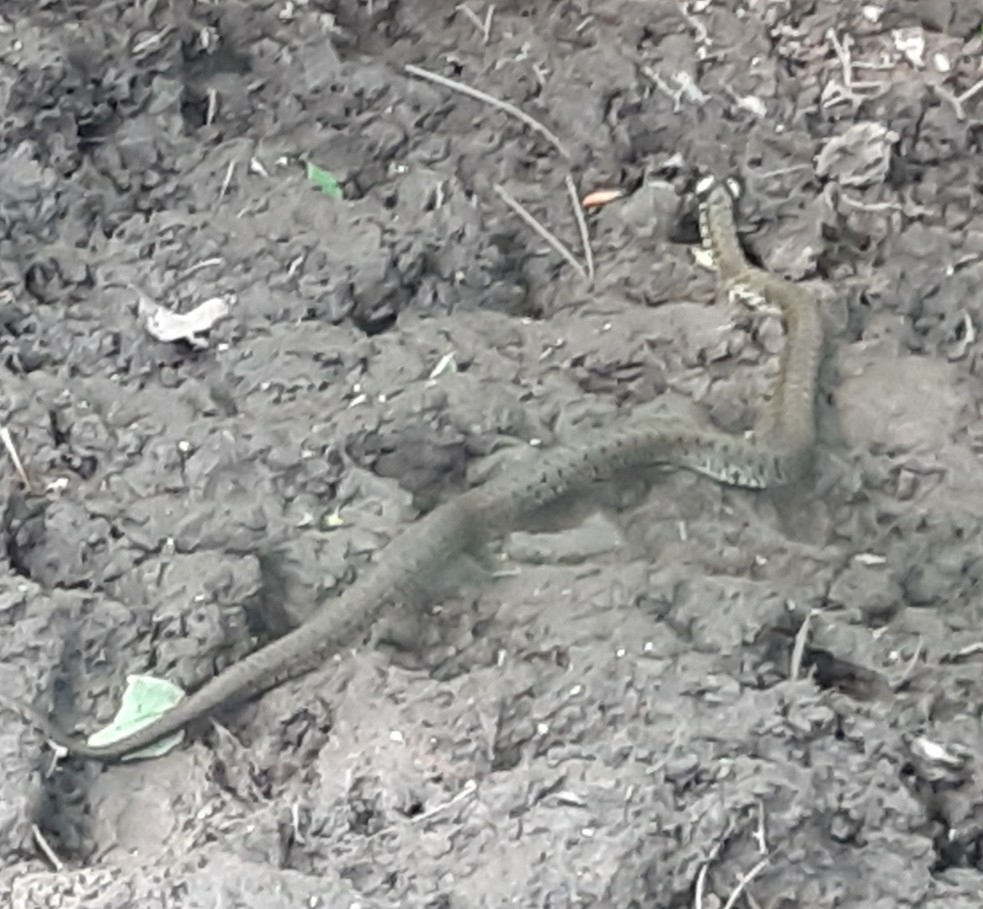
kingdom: Animalia
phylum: Chordata
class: Squamata
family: Colubridae
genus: Natrix
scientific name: Natrix natrix
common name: Grass snake
